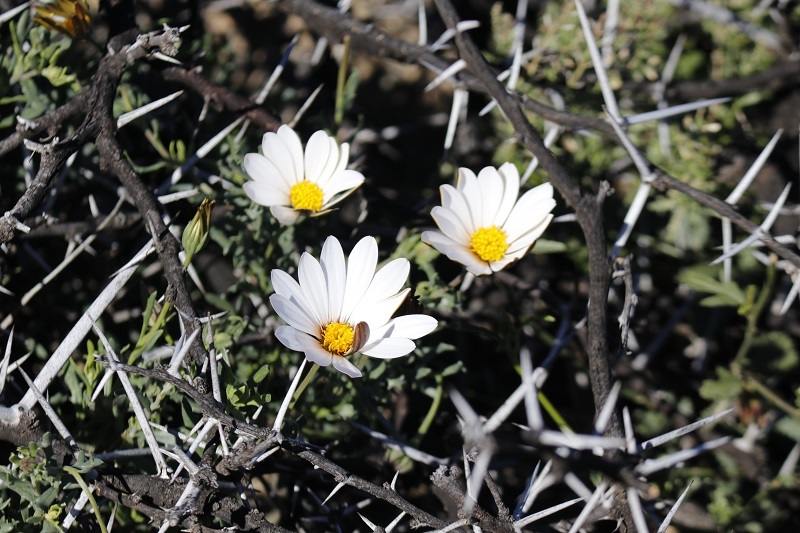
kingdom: Plantae
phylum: Tracheophyta
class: Magnoliopsida
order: Asterales
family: Asteraceae
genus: Dimorphotheca
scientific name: Dimorphotheca cuneata
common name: Daisy
